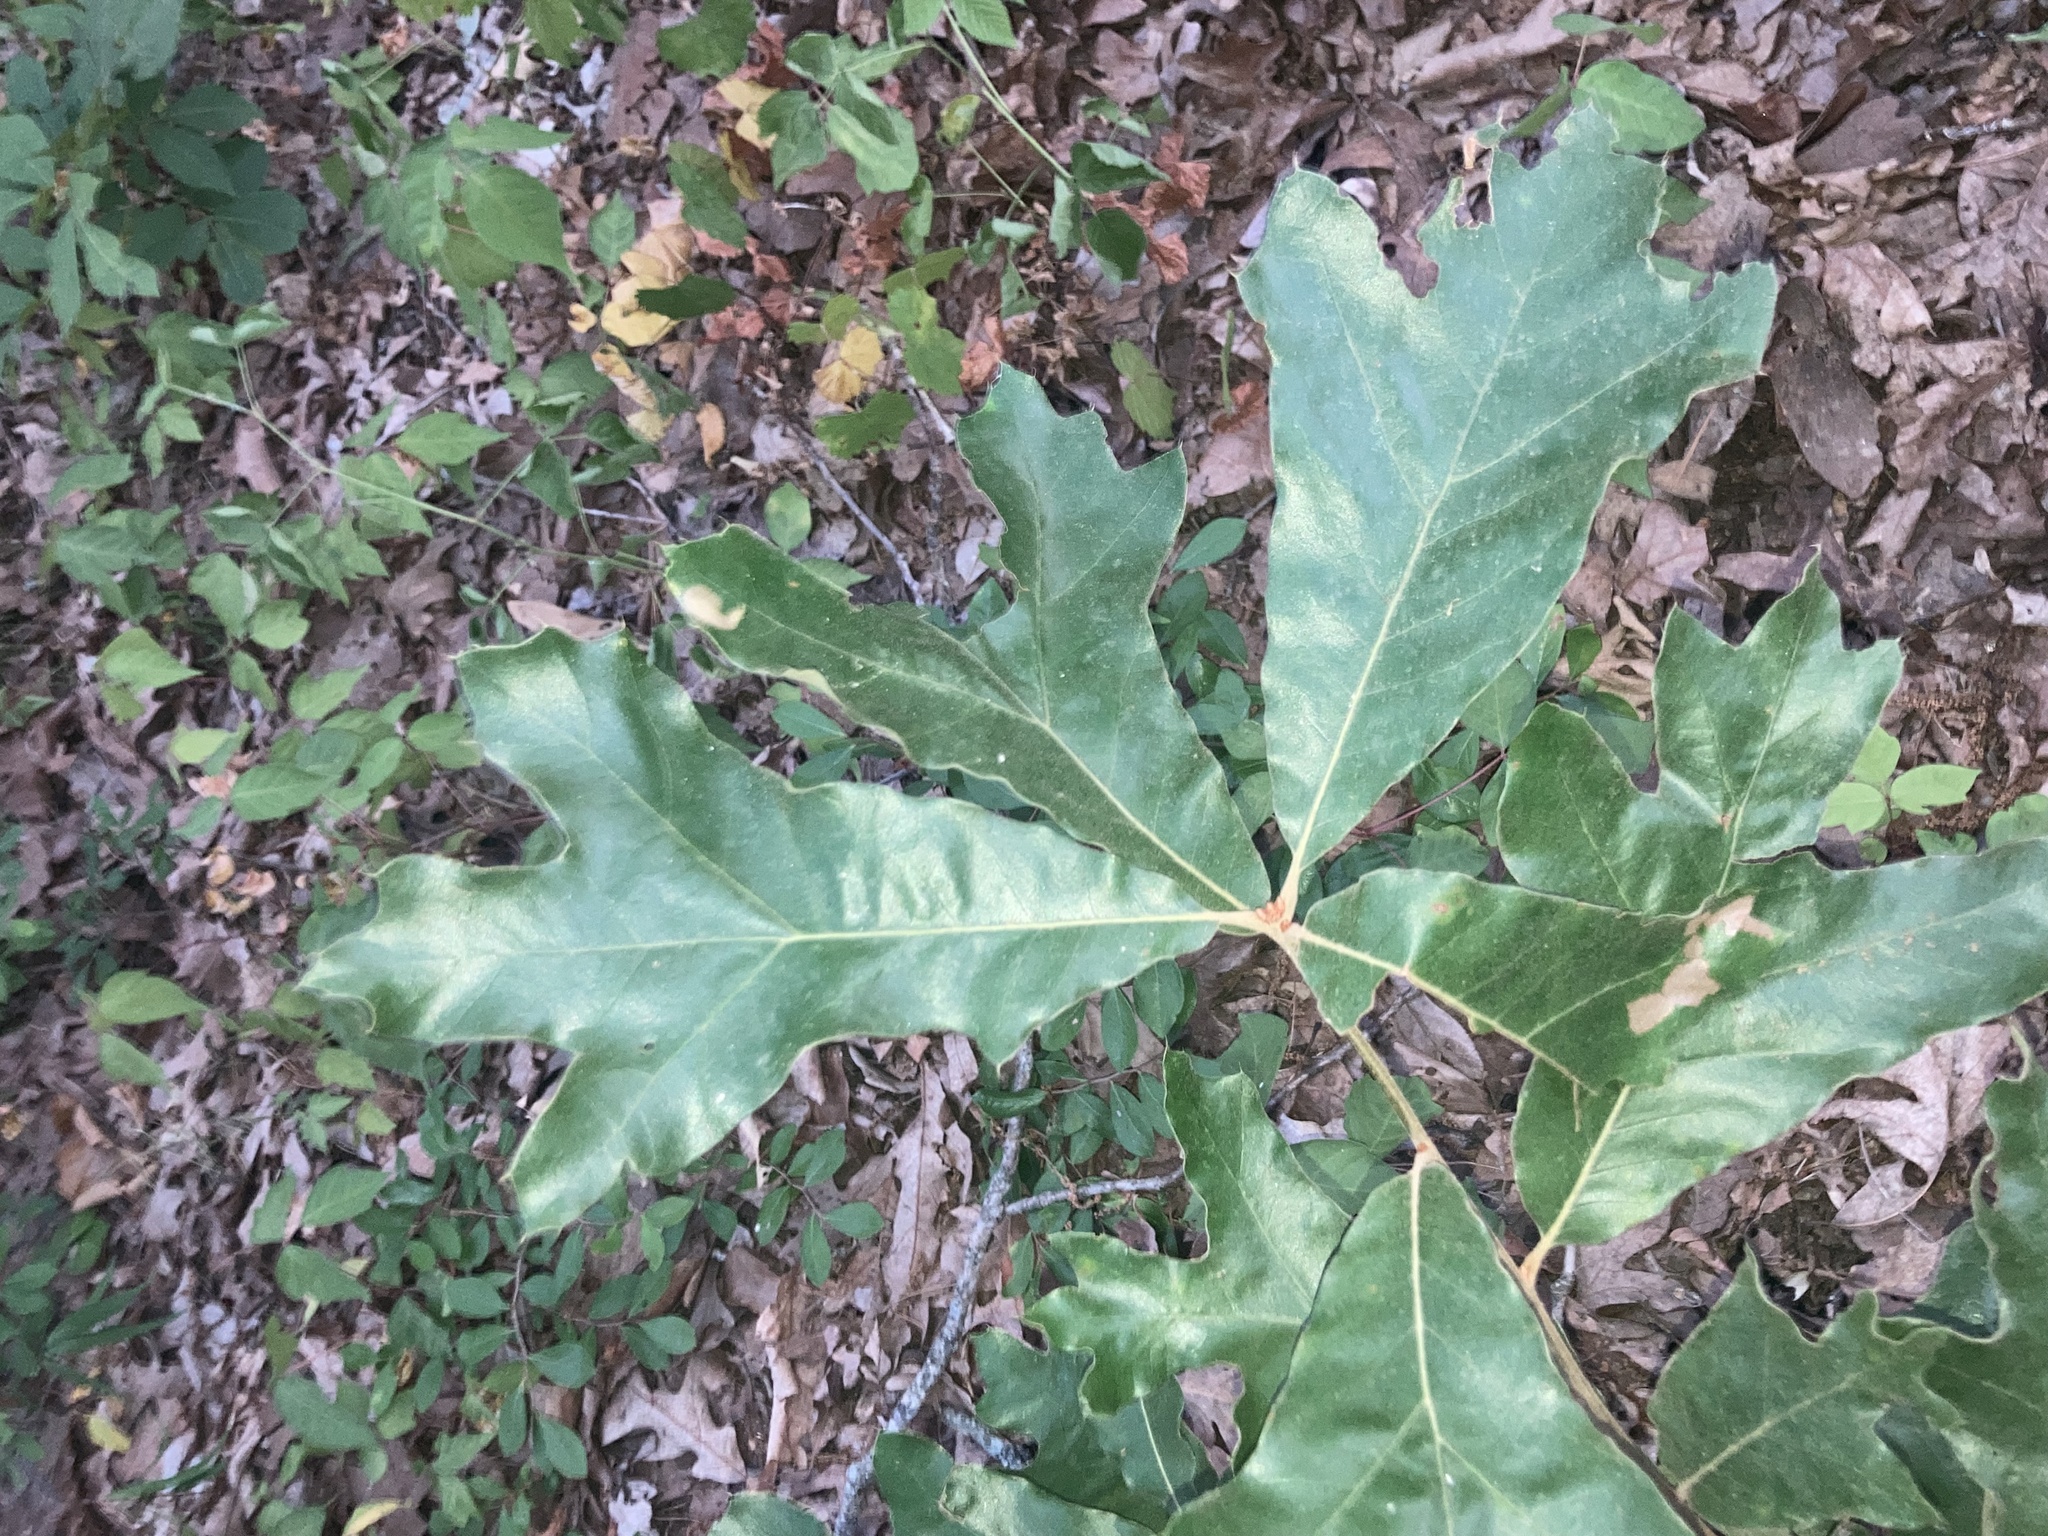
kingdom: Plantae
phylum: Tracheophyta
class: Magnoliopsida
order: Fagales
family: Fagaceae
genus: Quercus
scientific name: Quercus falcata
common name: Southern red oak
